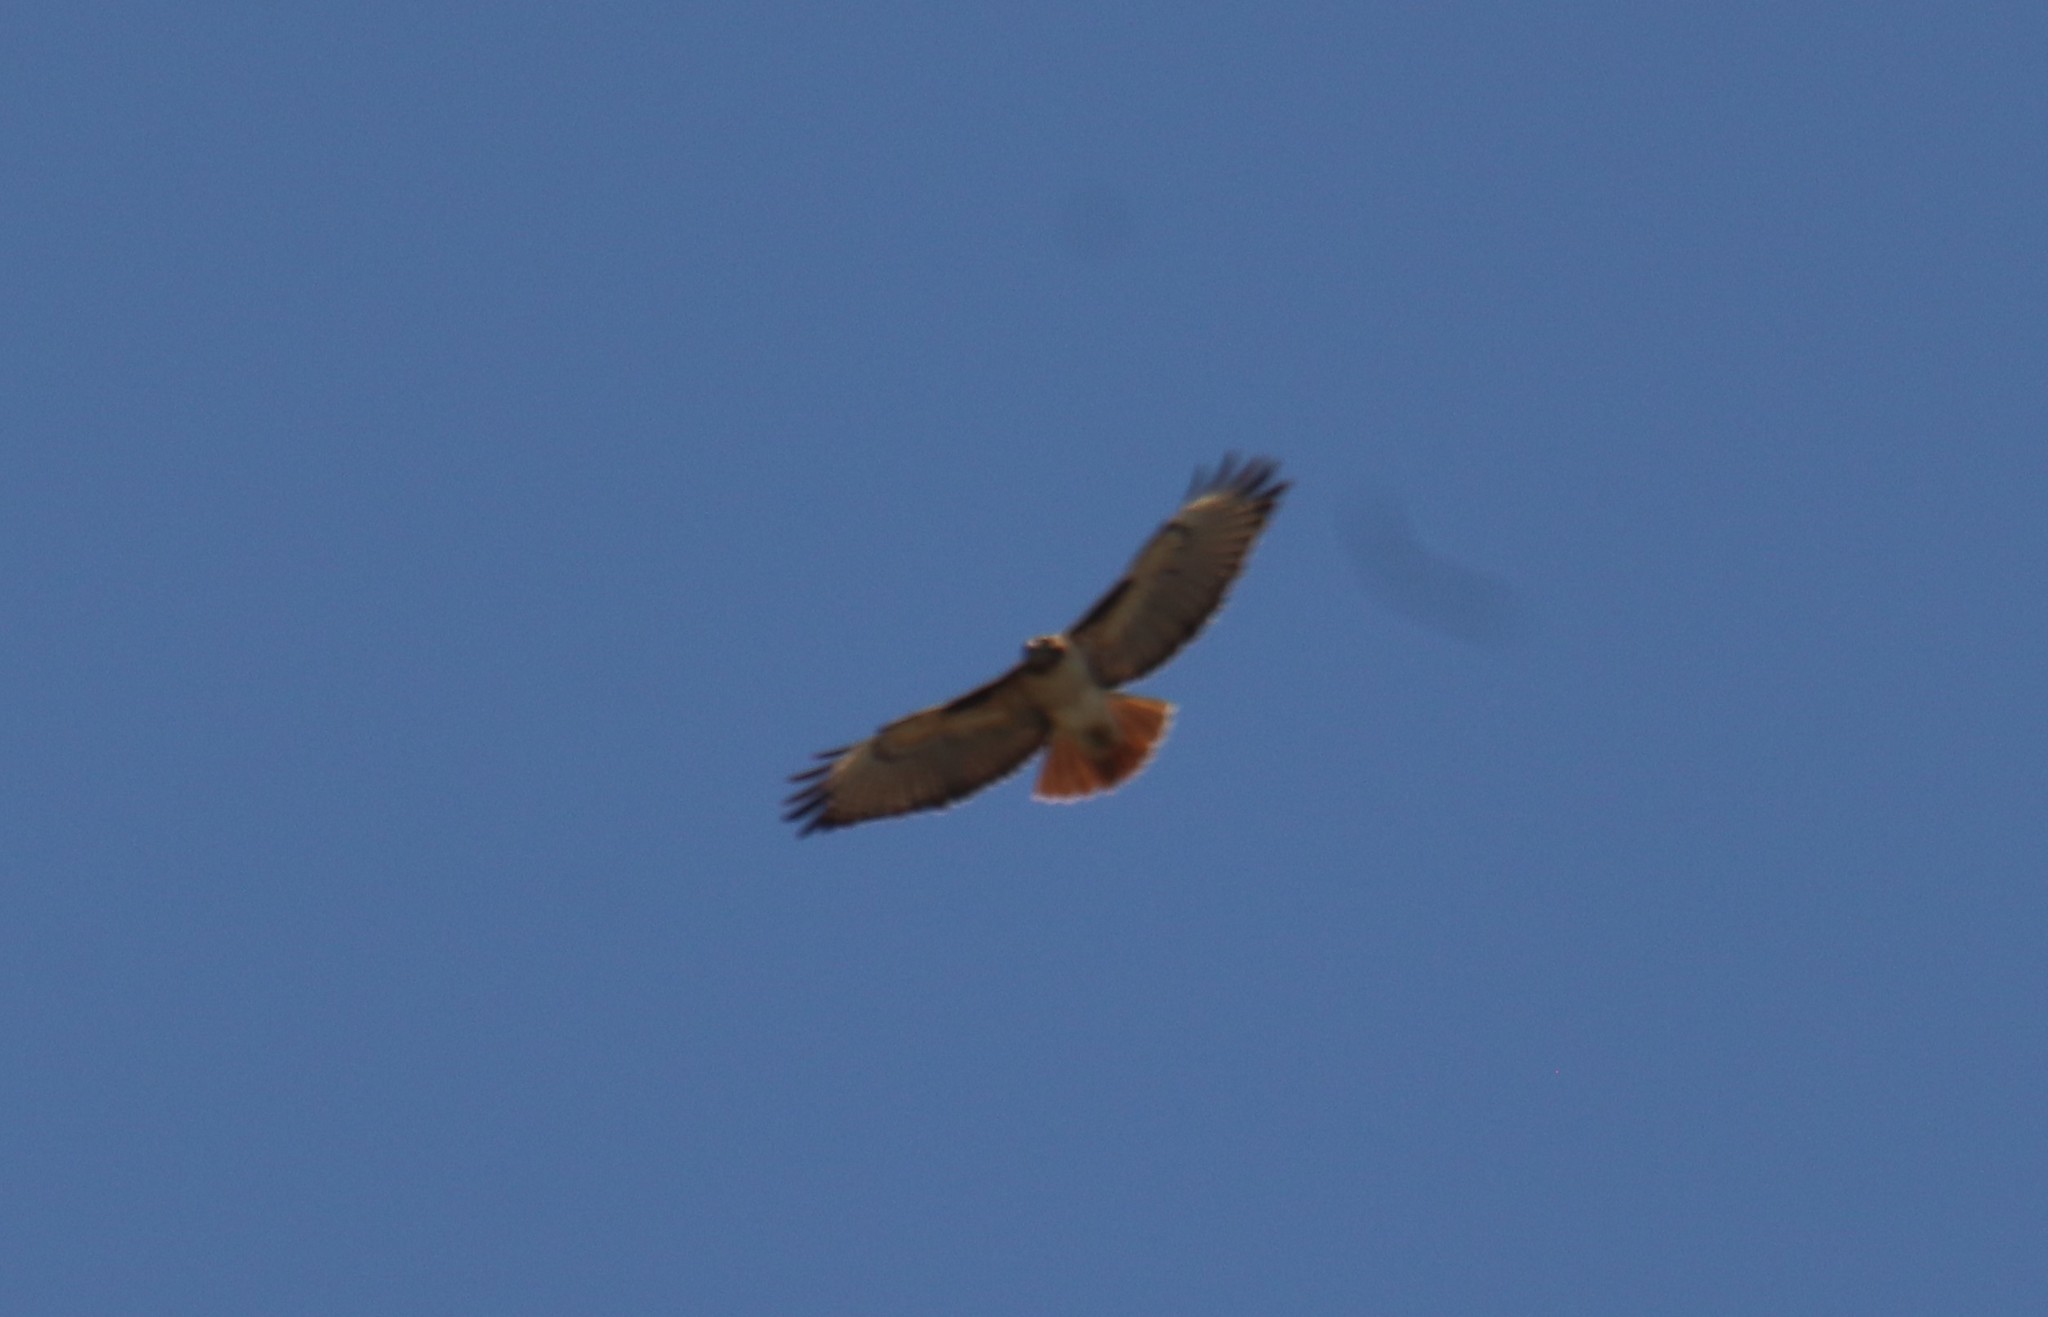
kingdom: Animalia
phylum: Chordata
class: Aves
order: Accipitriformes
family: Accipitridae
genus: Buteo
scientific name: Buteo jamaicensis
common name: Red-tailed hawk
